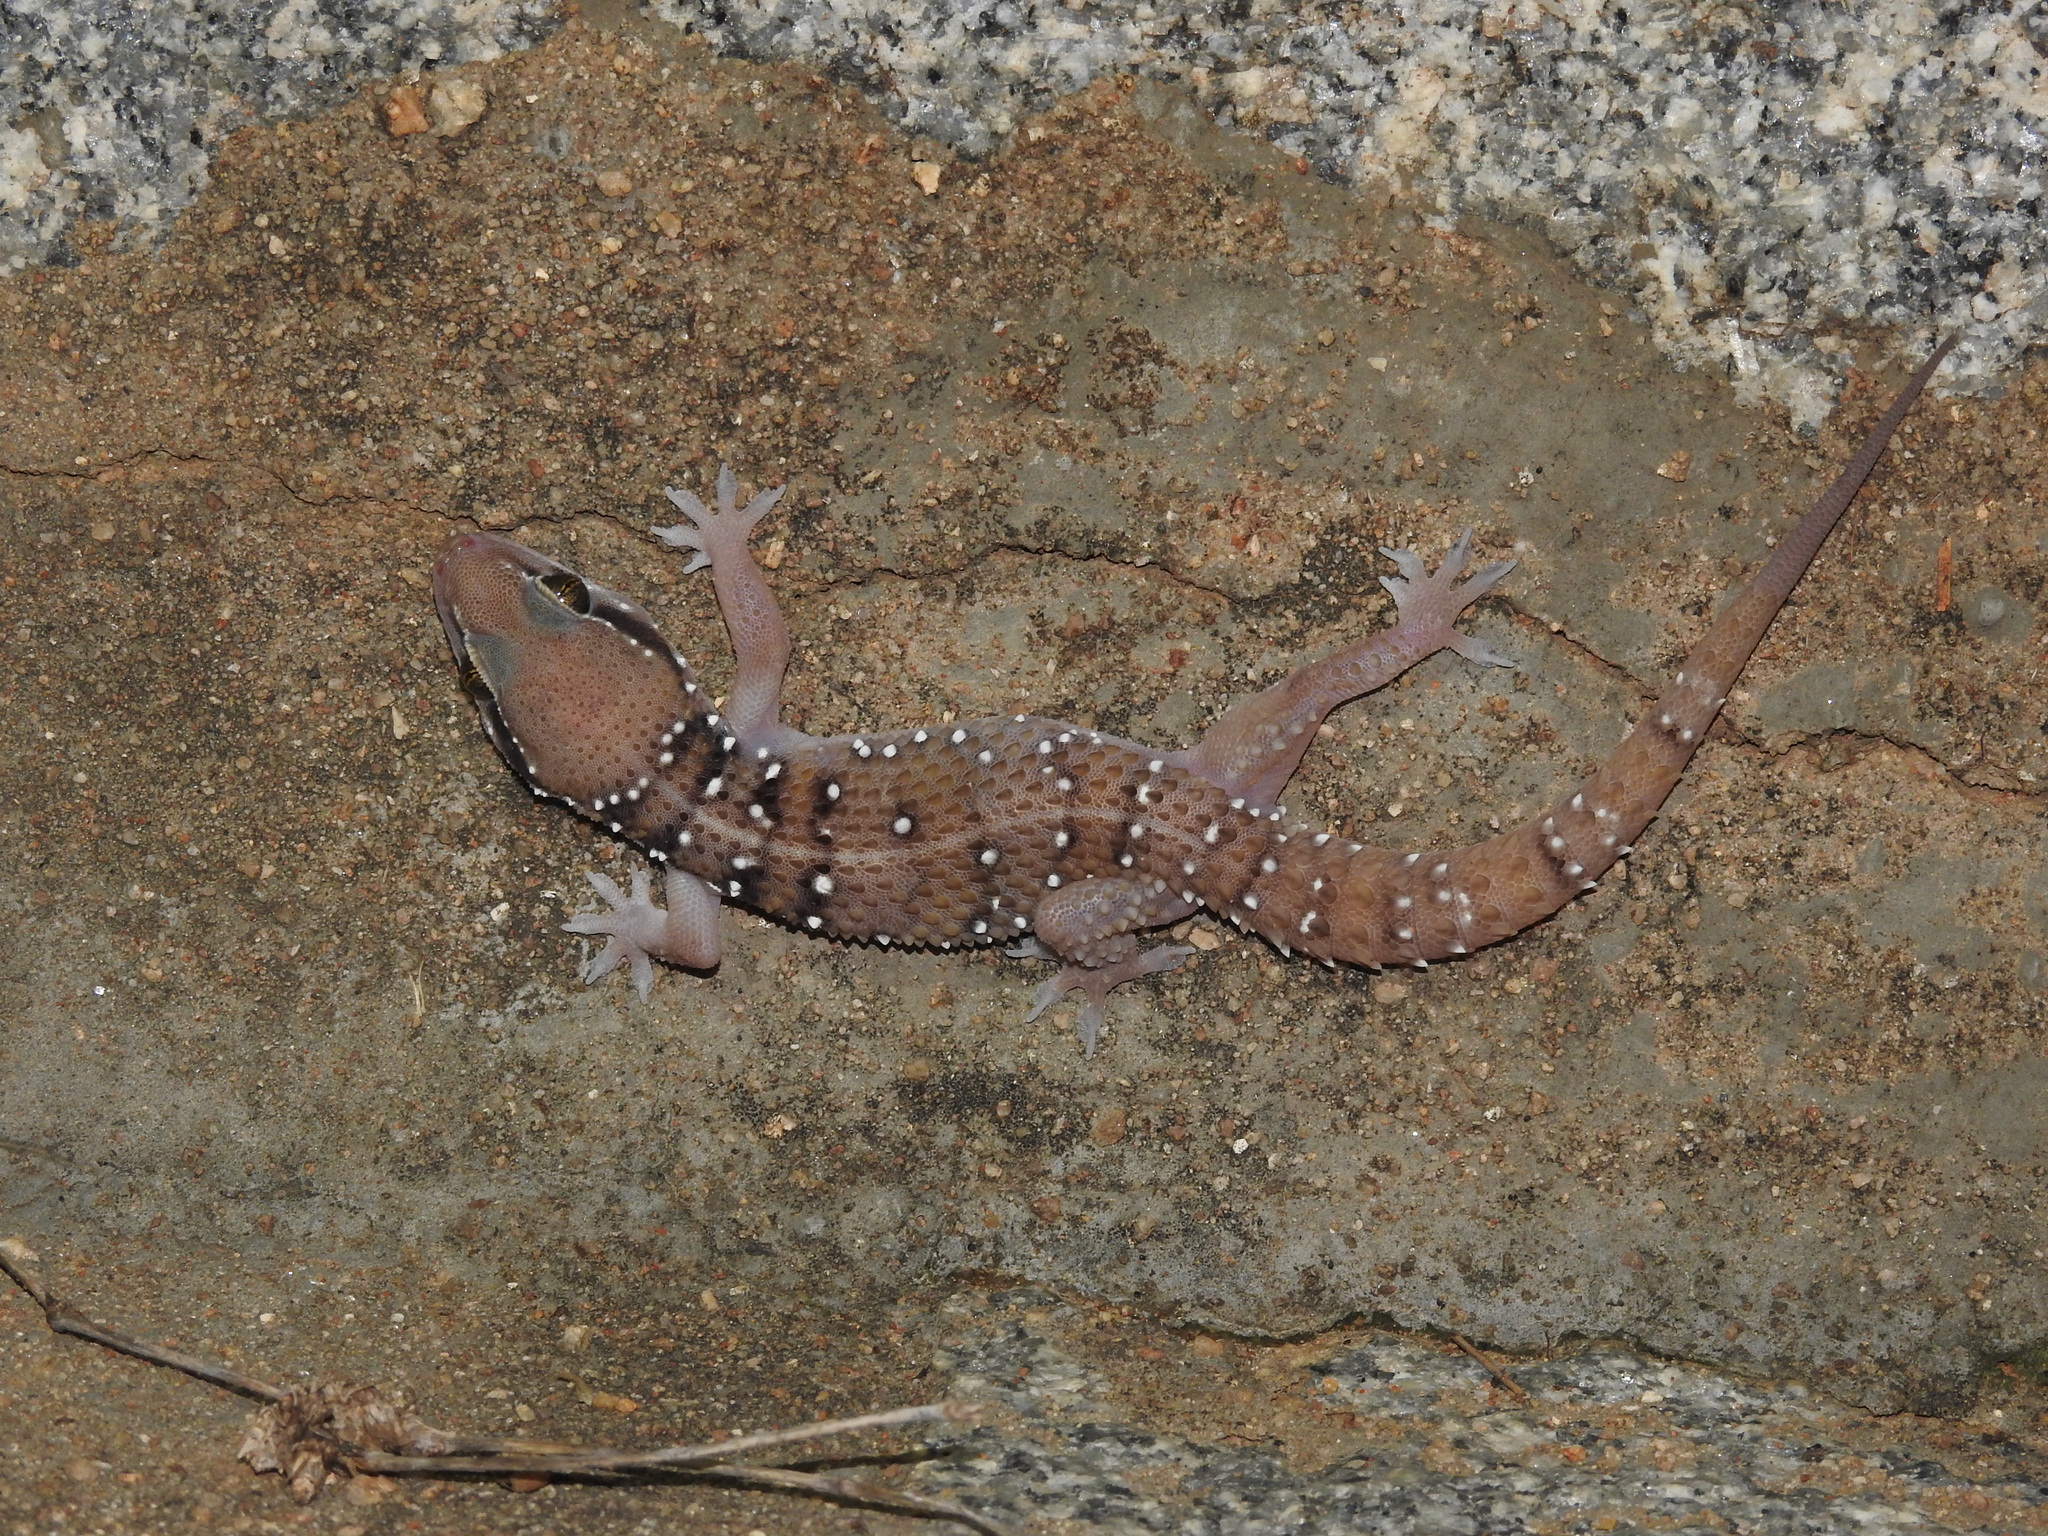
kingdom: Animalia
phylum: Chordata
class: Squamata
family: Gekkonidae
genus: Hemidactylus
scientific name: Hemidactylus whitakeri
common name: Whitaker’s termite hill gecko
